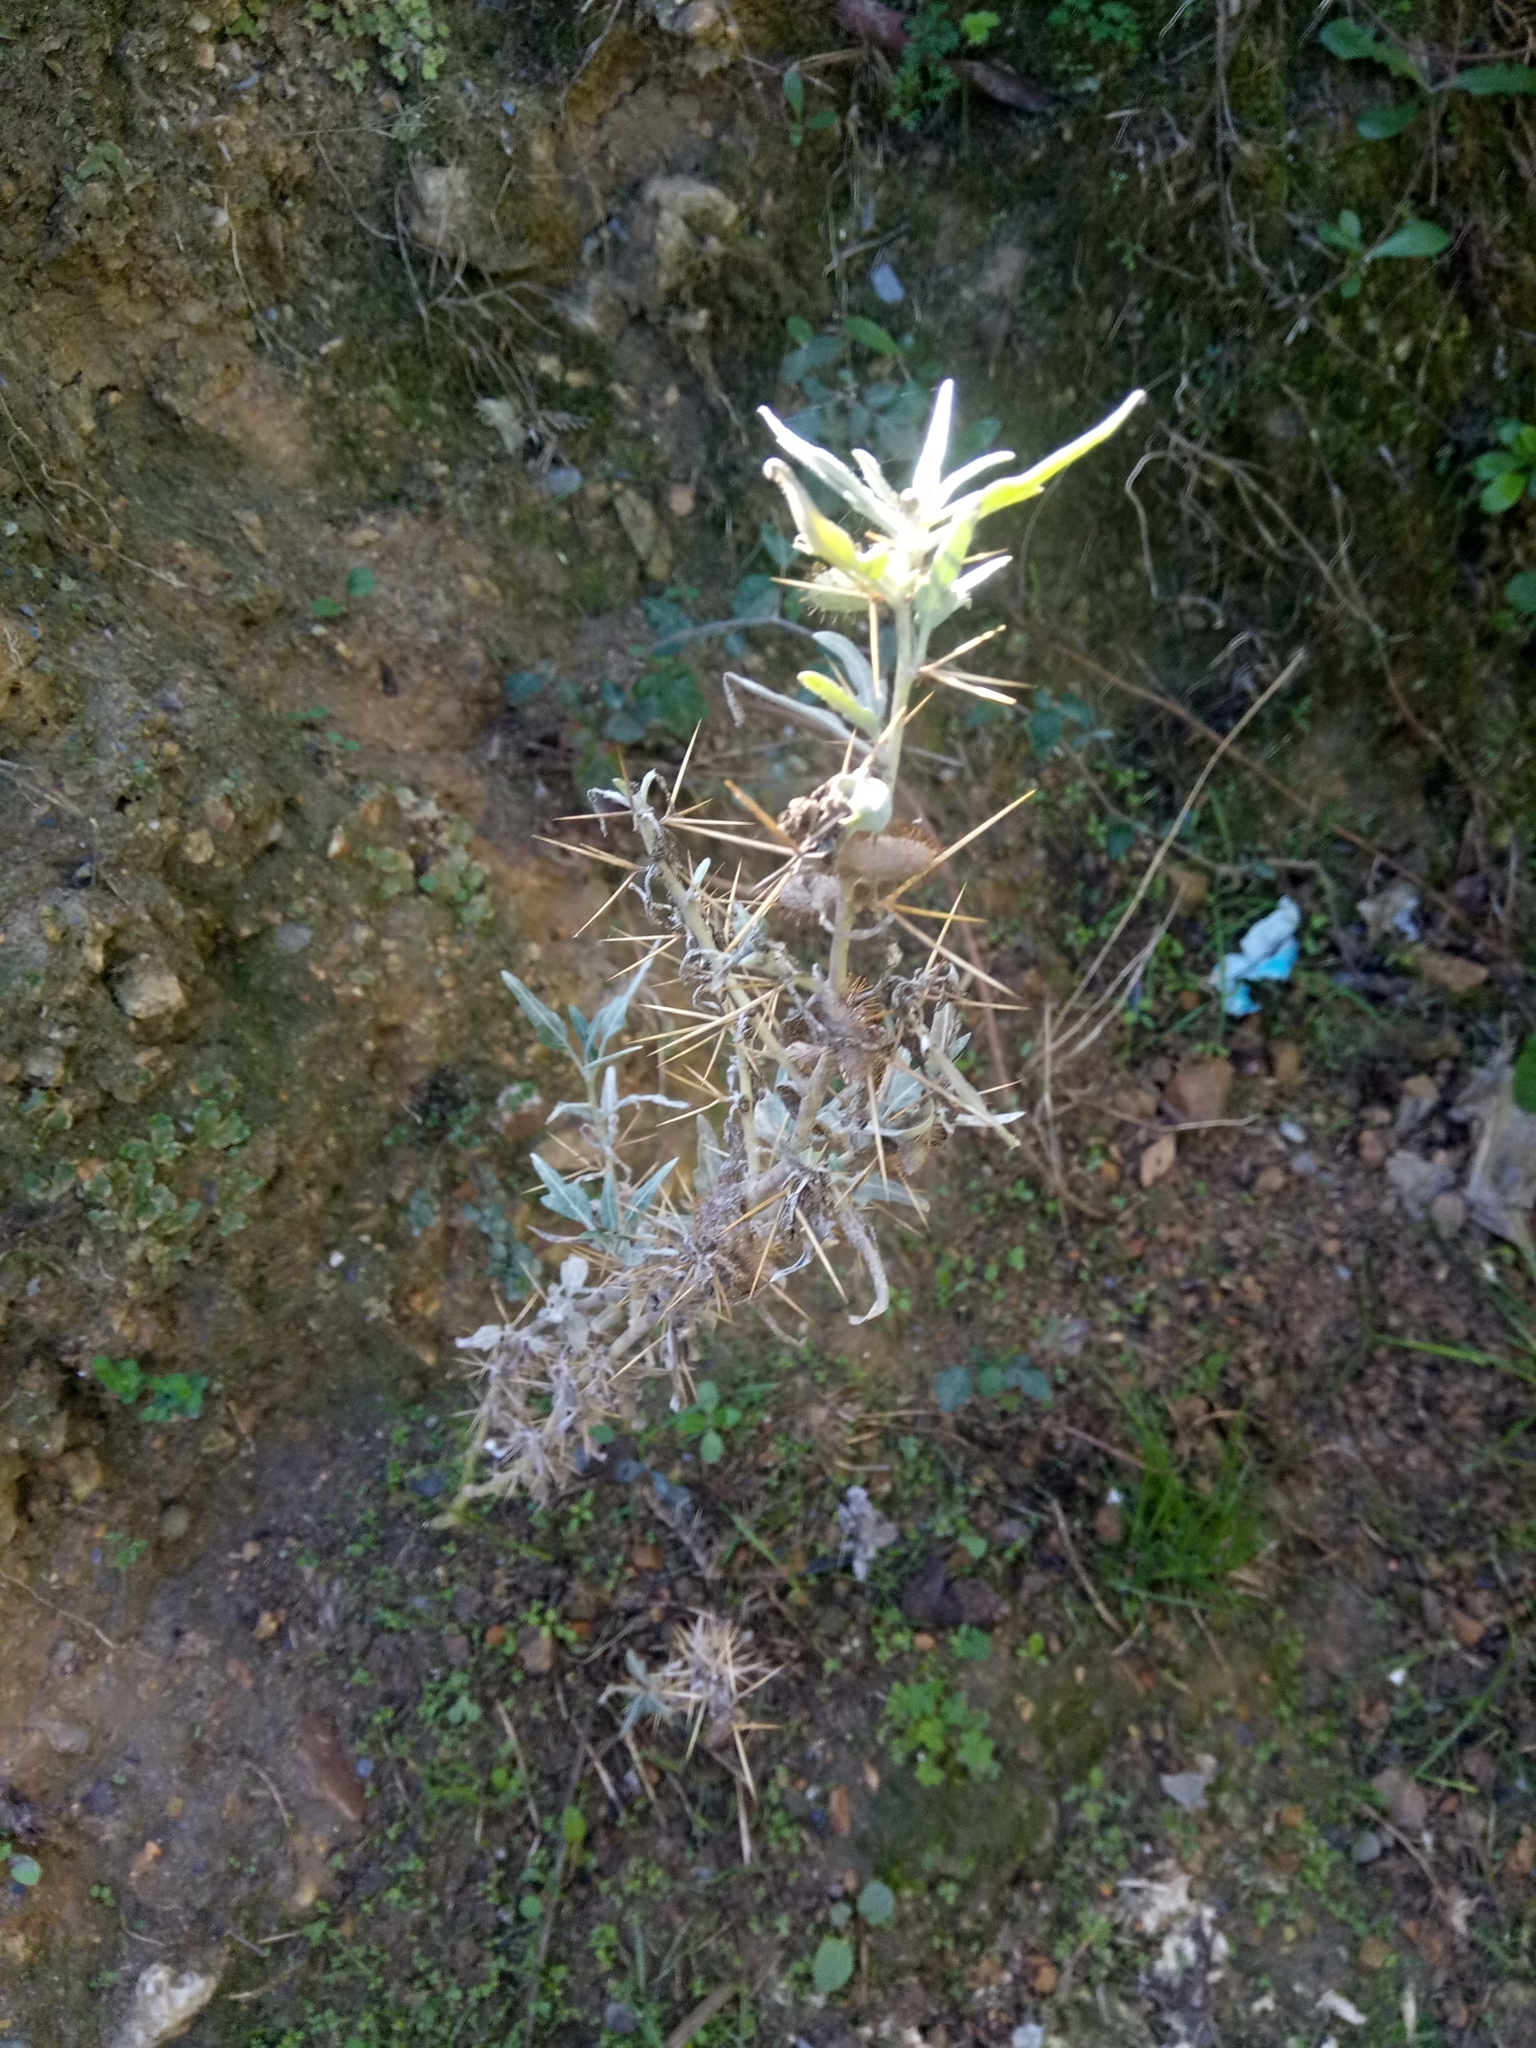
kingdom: Plantae
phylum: Tracheophyta
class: Magnoliopsida
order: Asterales
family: Asteraceae
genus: Xanthium
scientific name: Xanthium spinosum
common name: Spiny cocklebur
